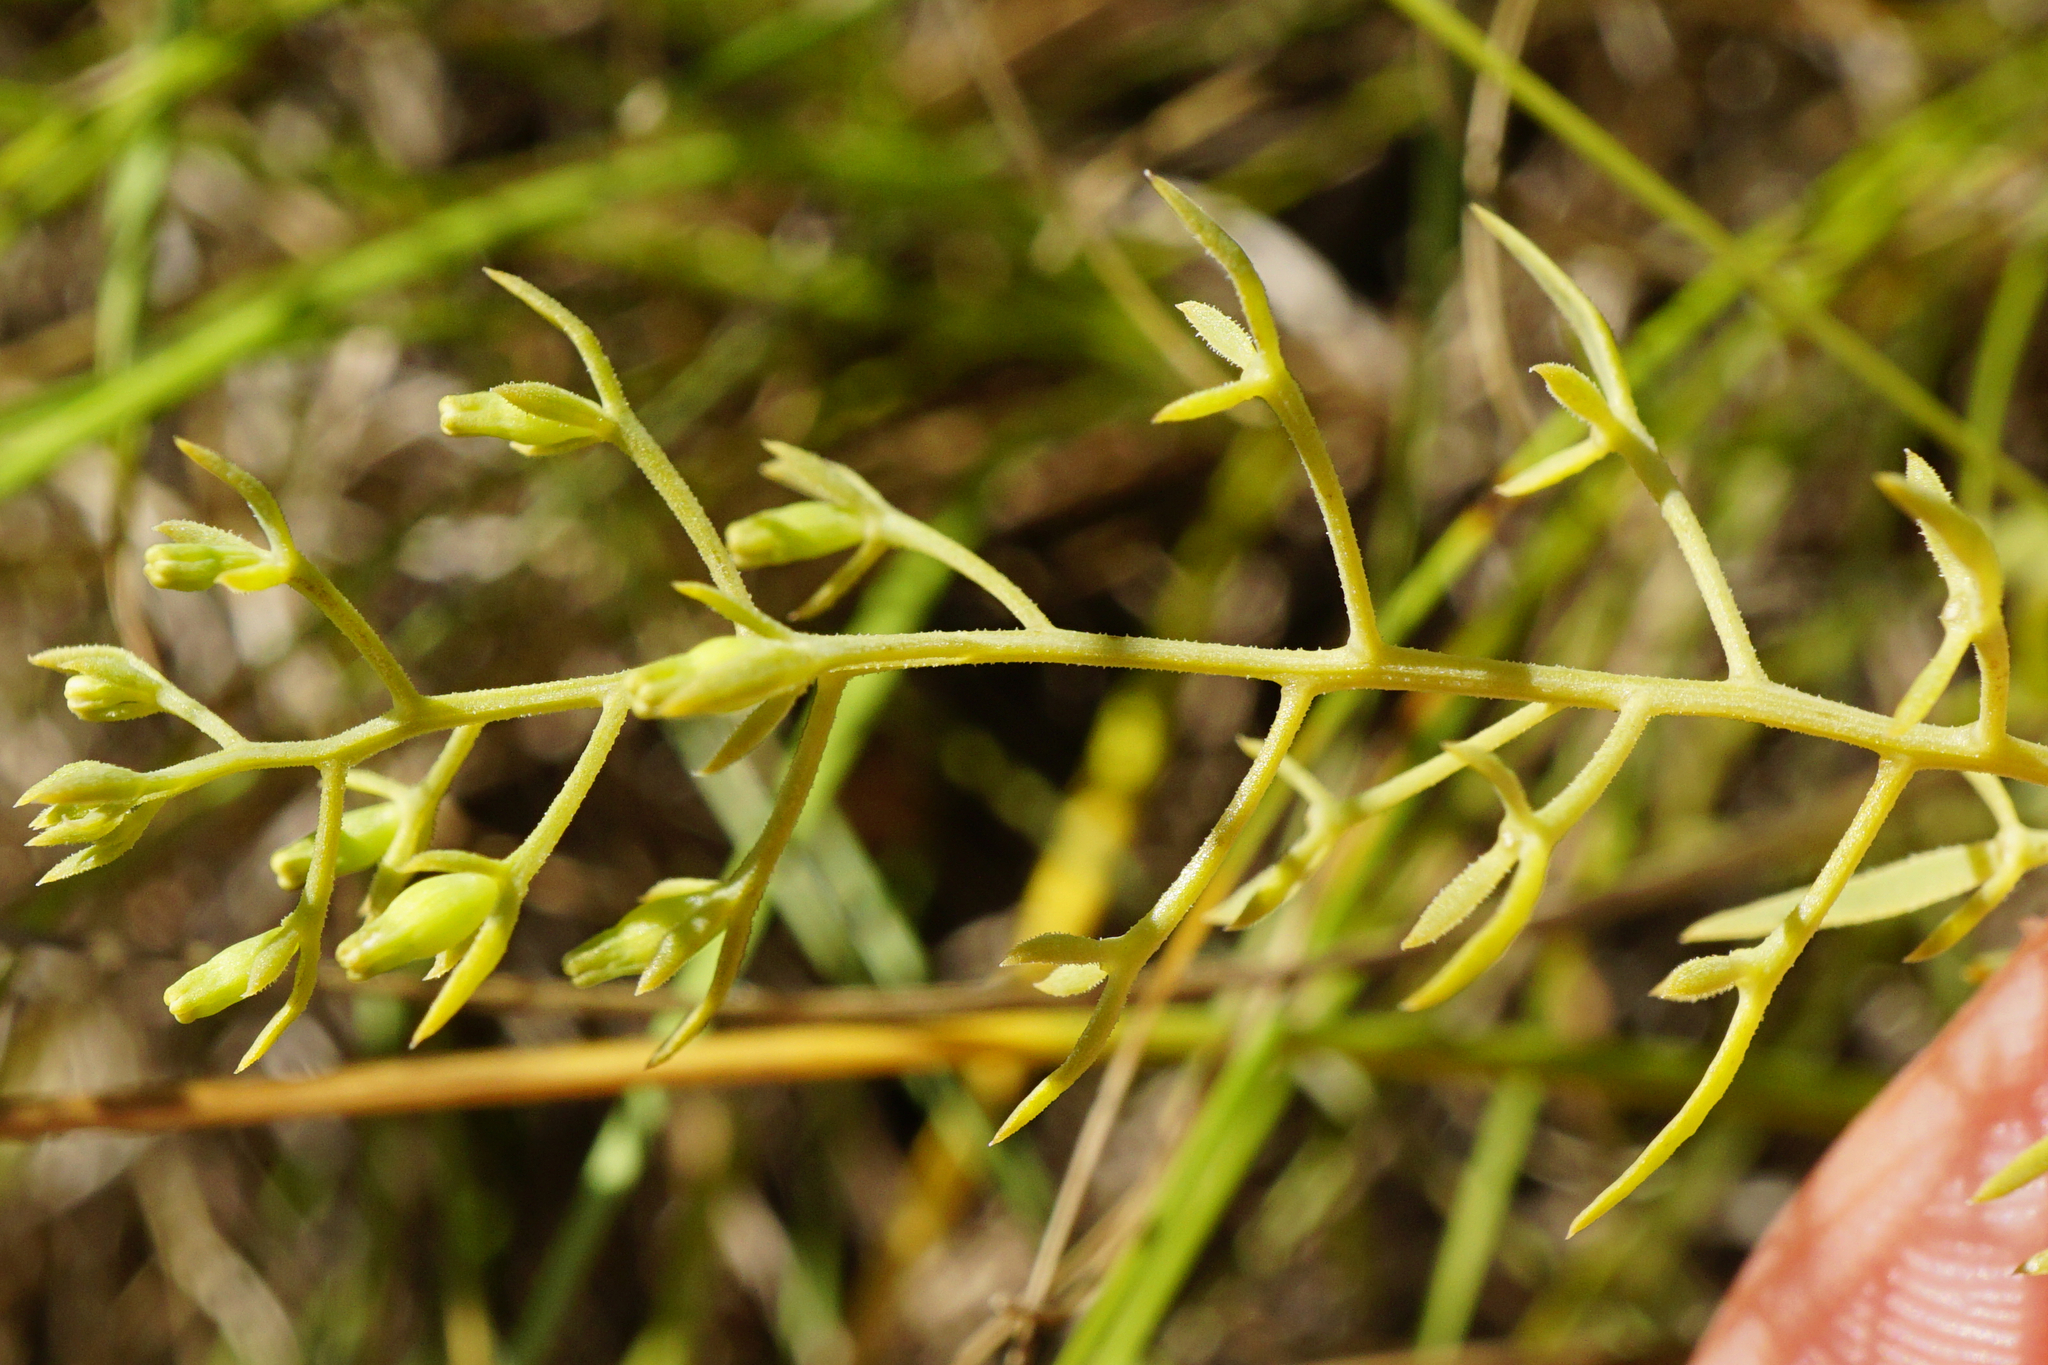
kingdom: Plantae
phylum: Tracheophyta
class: Magnoliopsida
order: Santalales
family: Thesiaceae
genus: Thesium
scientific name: Thesium ramosum
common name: Field thesium
